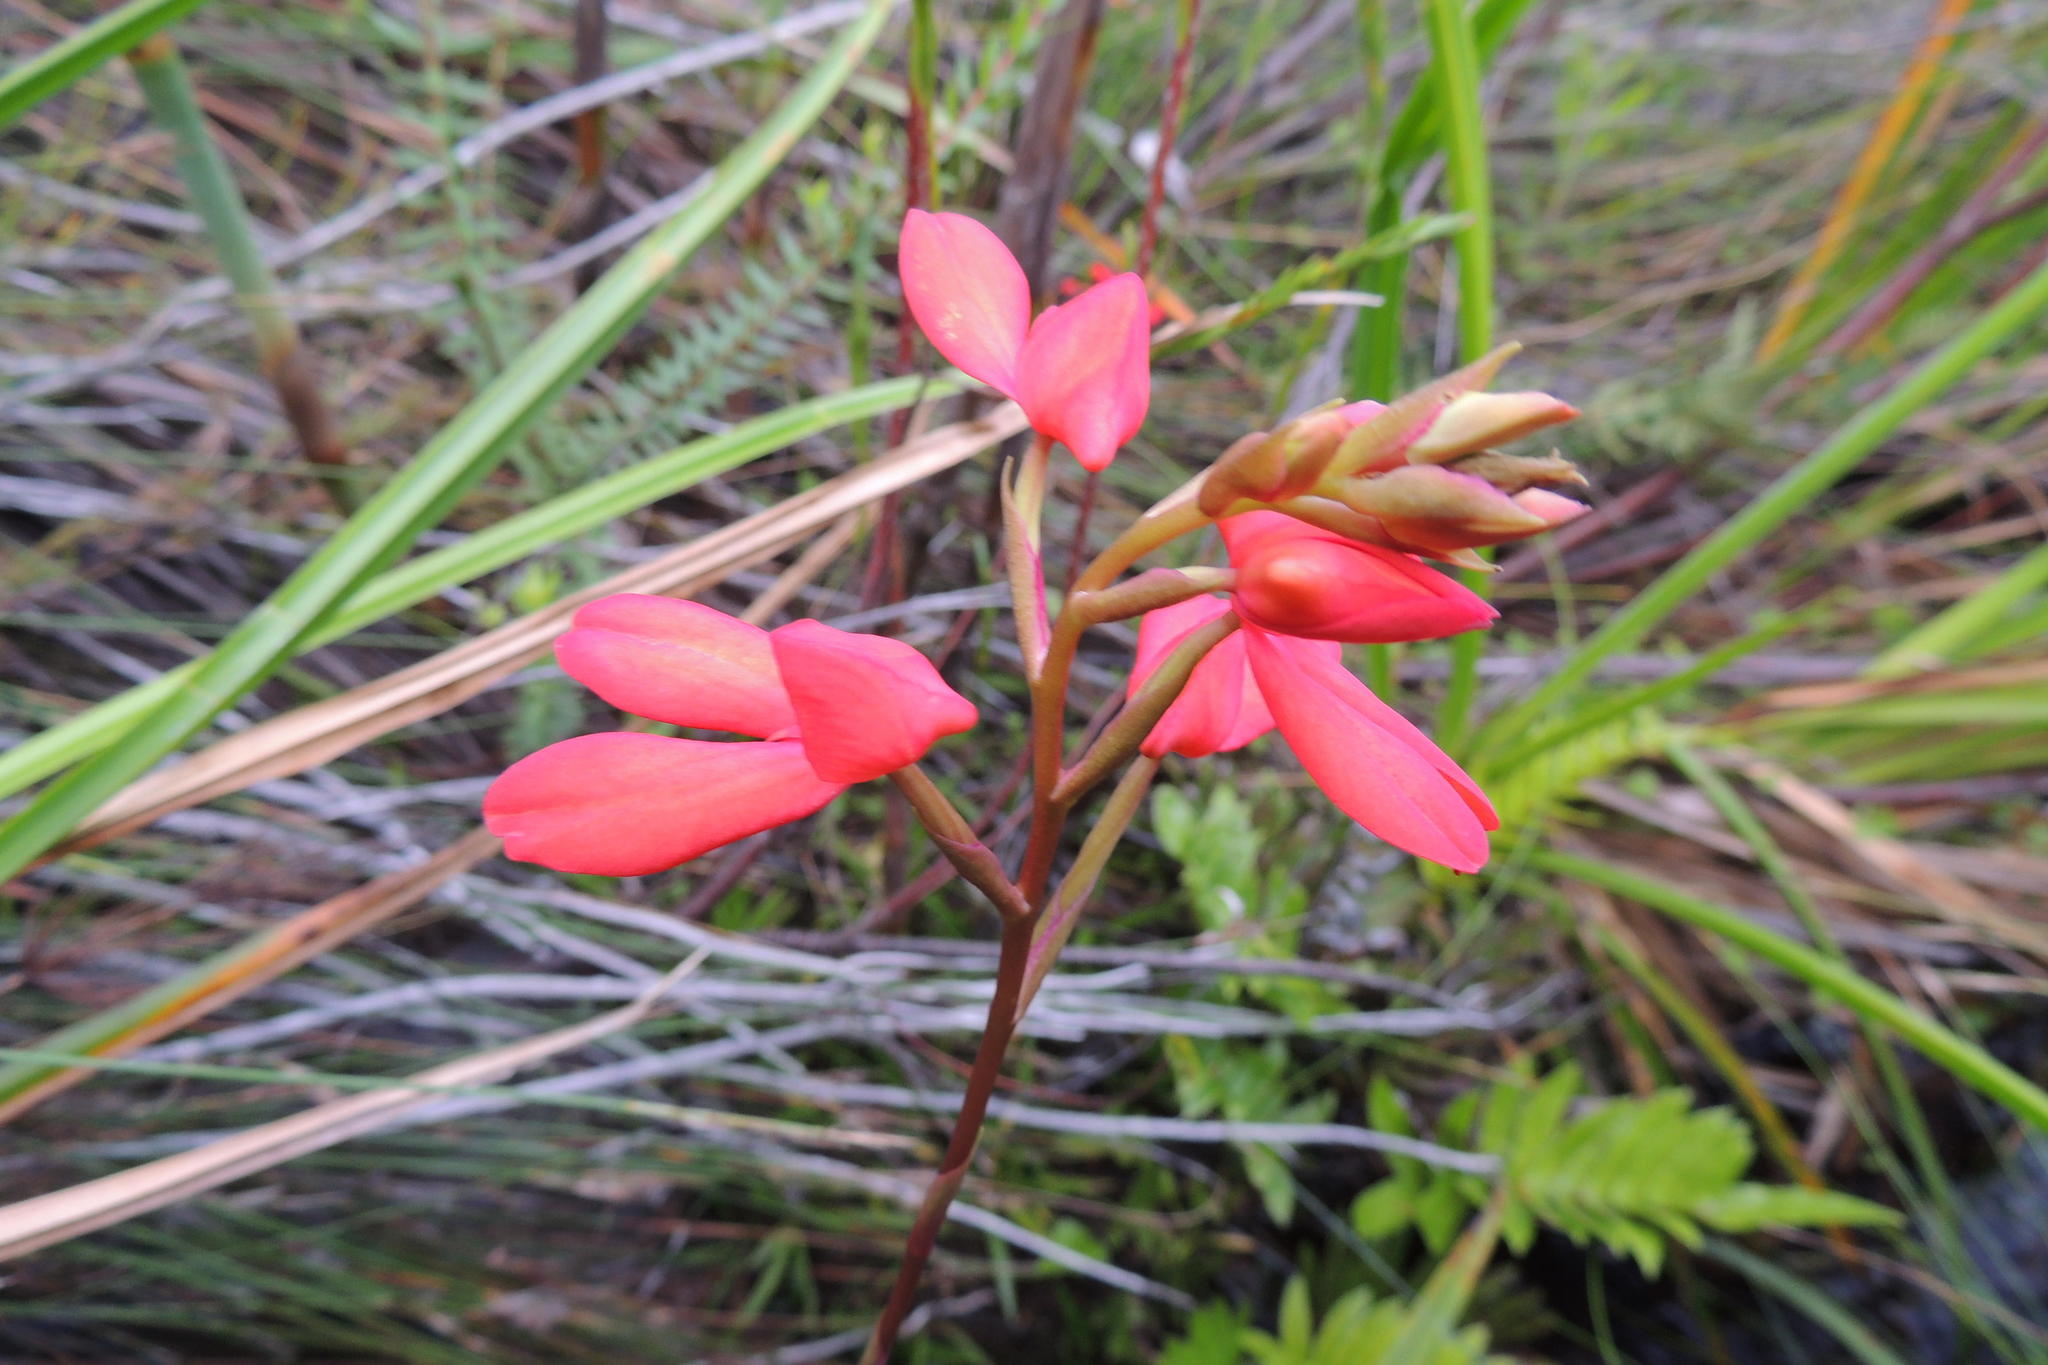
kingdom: Plantae
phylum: Tracheophyta
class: Liliopsida
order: Asparagales
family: Orchidaceae
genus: Disa
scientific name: Disa cardinalis
